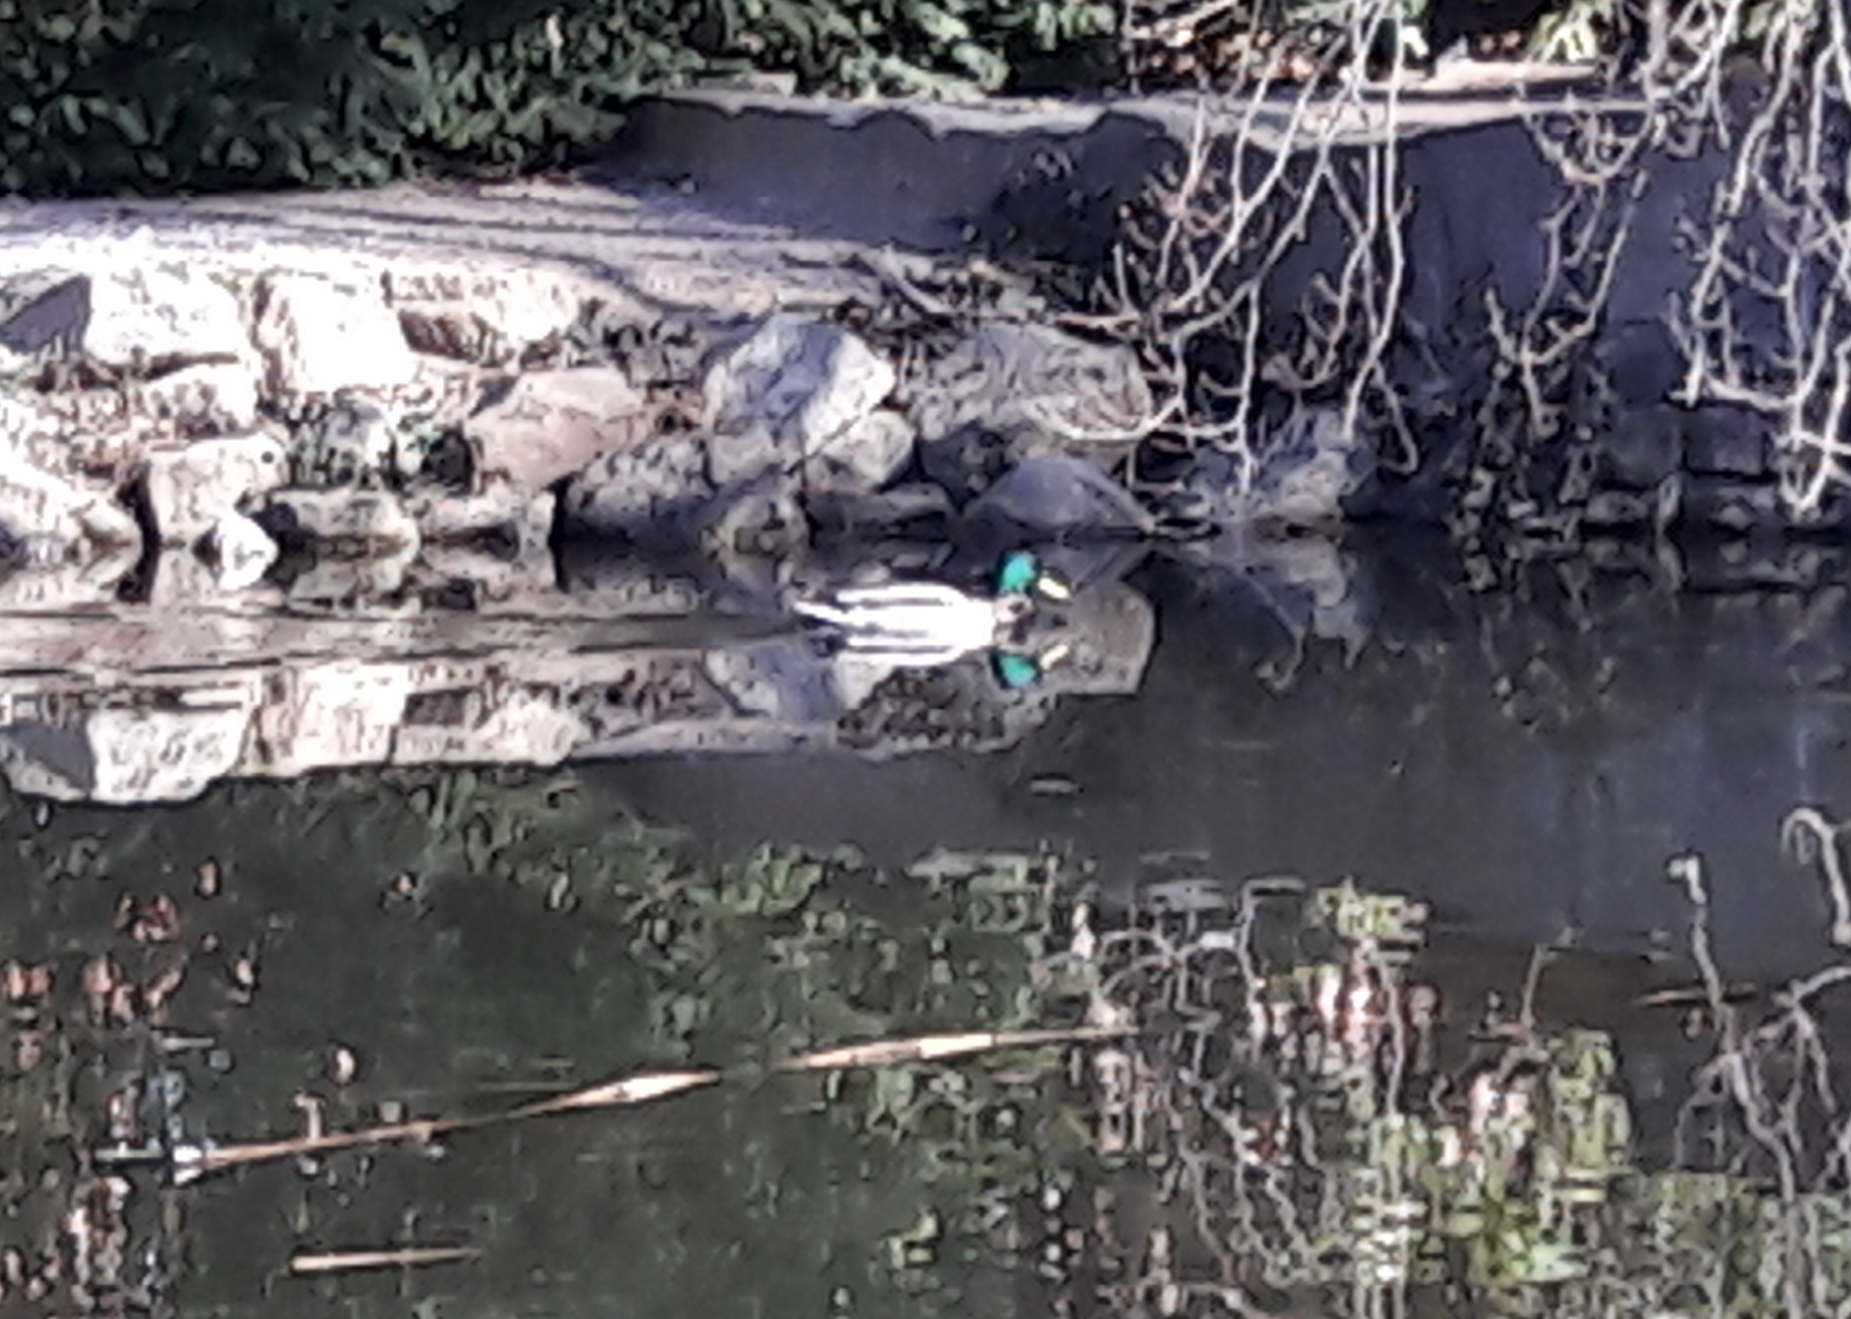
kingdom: Animalia
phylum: Chordata
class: Aves
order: Anseriformes
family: Anatidae
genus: Anas
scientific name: Anas platyrhynchos
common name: Mallard
